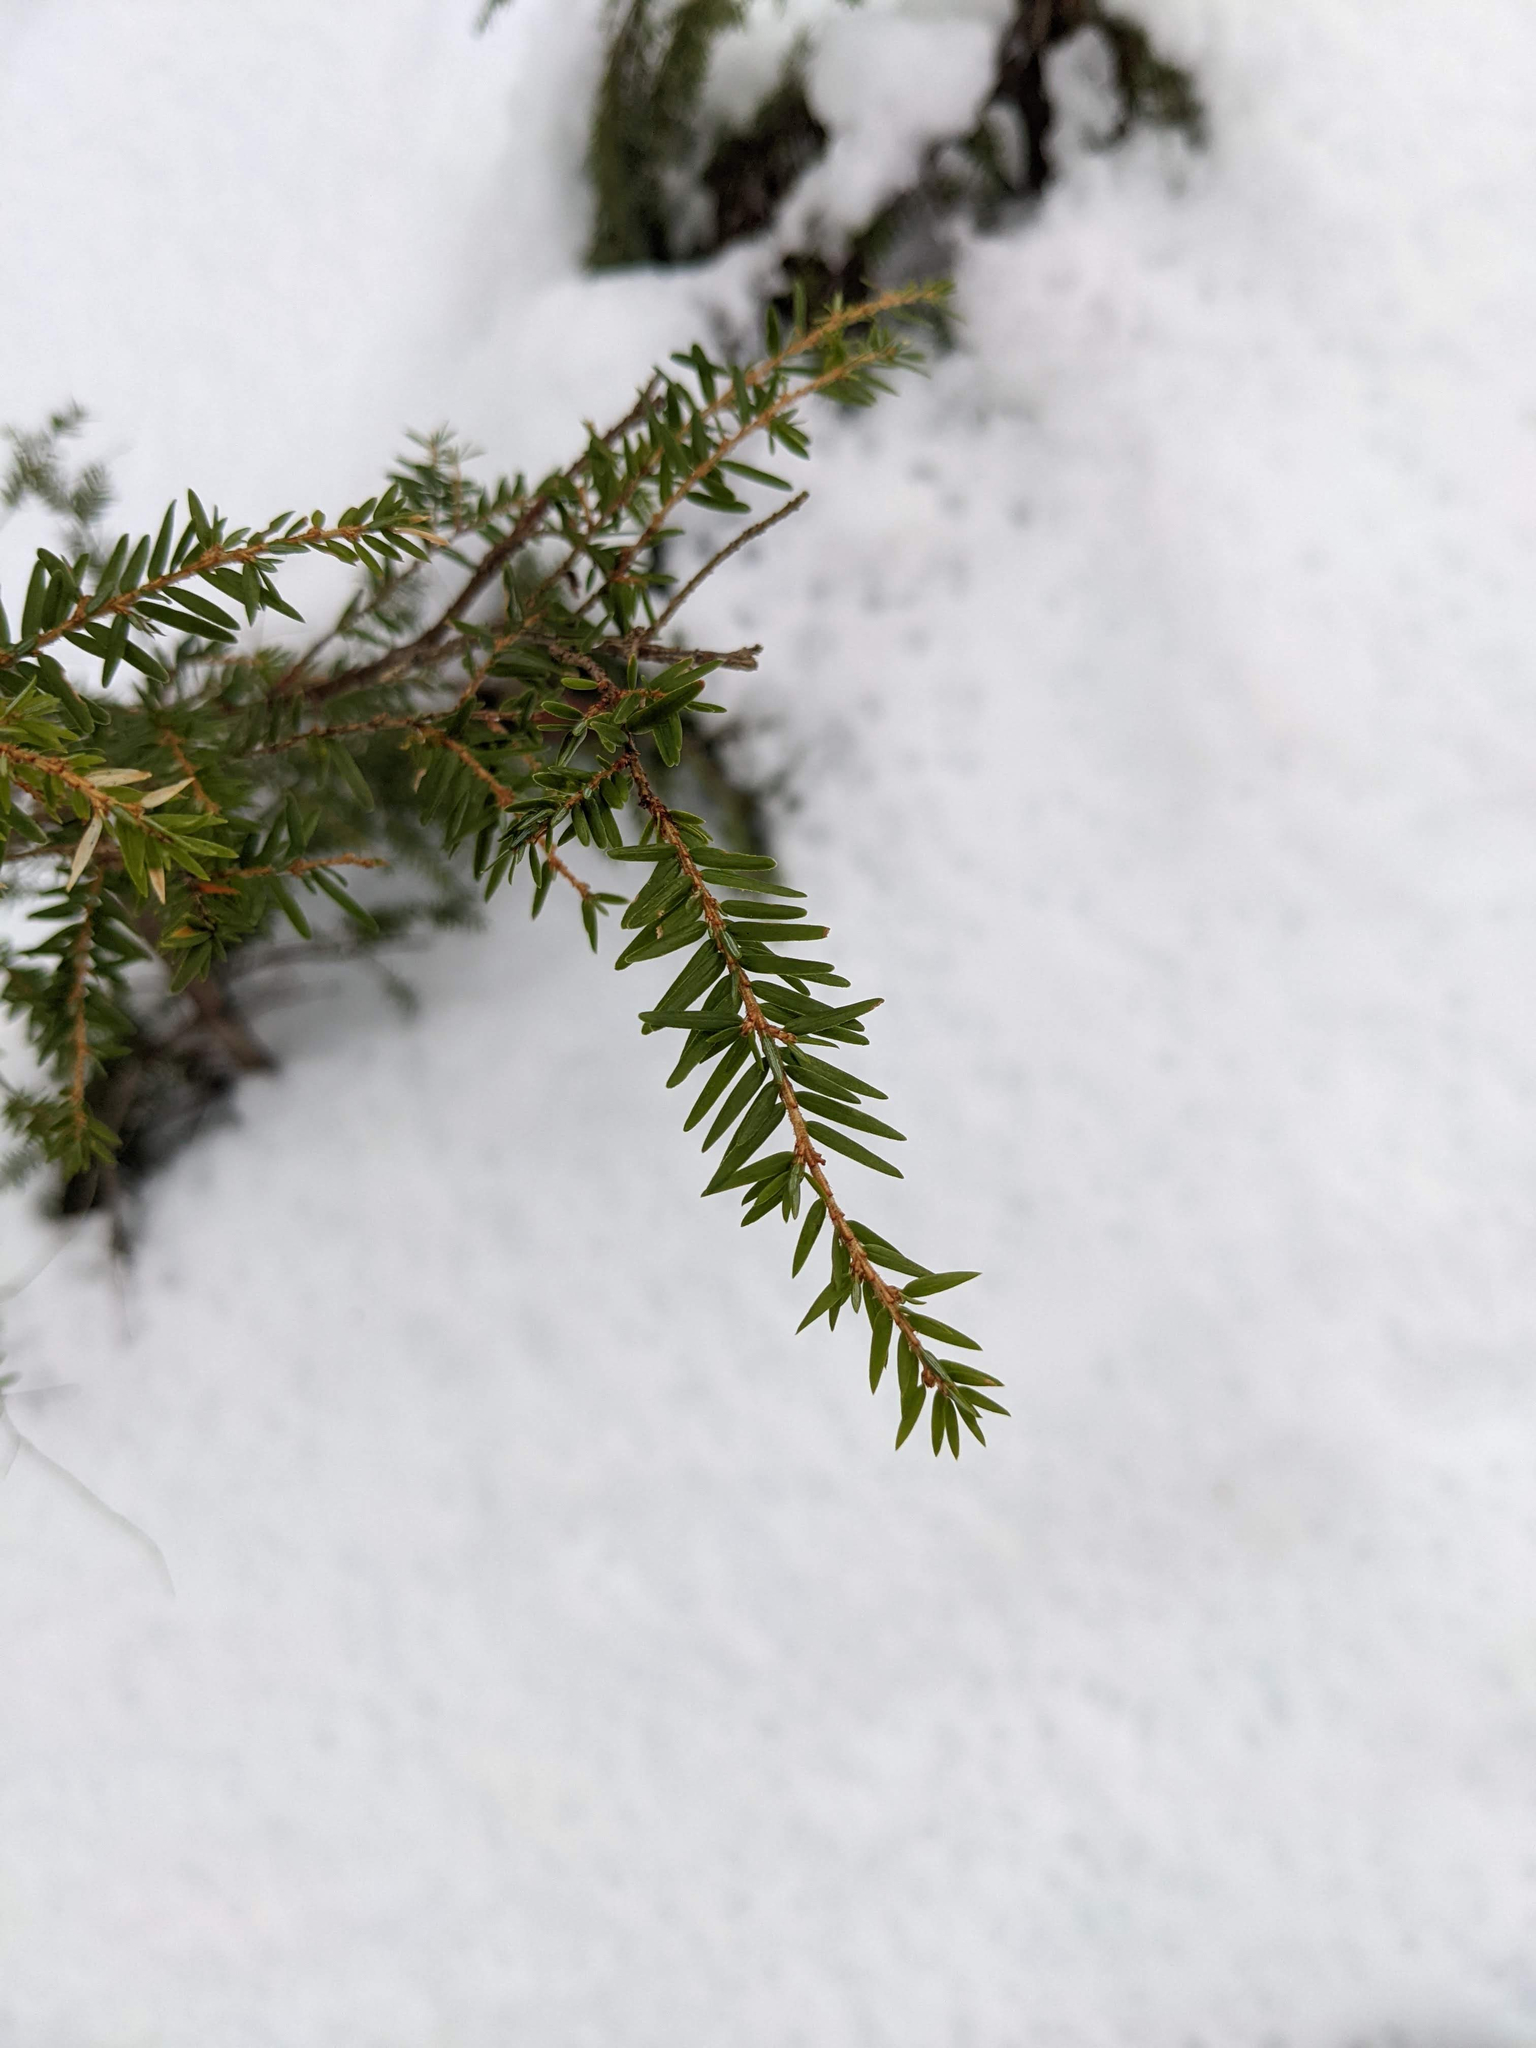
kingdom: Plantae
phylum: Tracheophyta
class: Pinopsida
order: Pinales
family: Pinaceae
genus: Tsuga
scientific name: Tsuga canadensis
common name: Eastern hemlock
